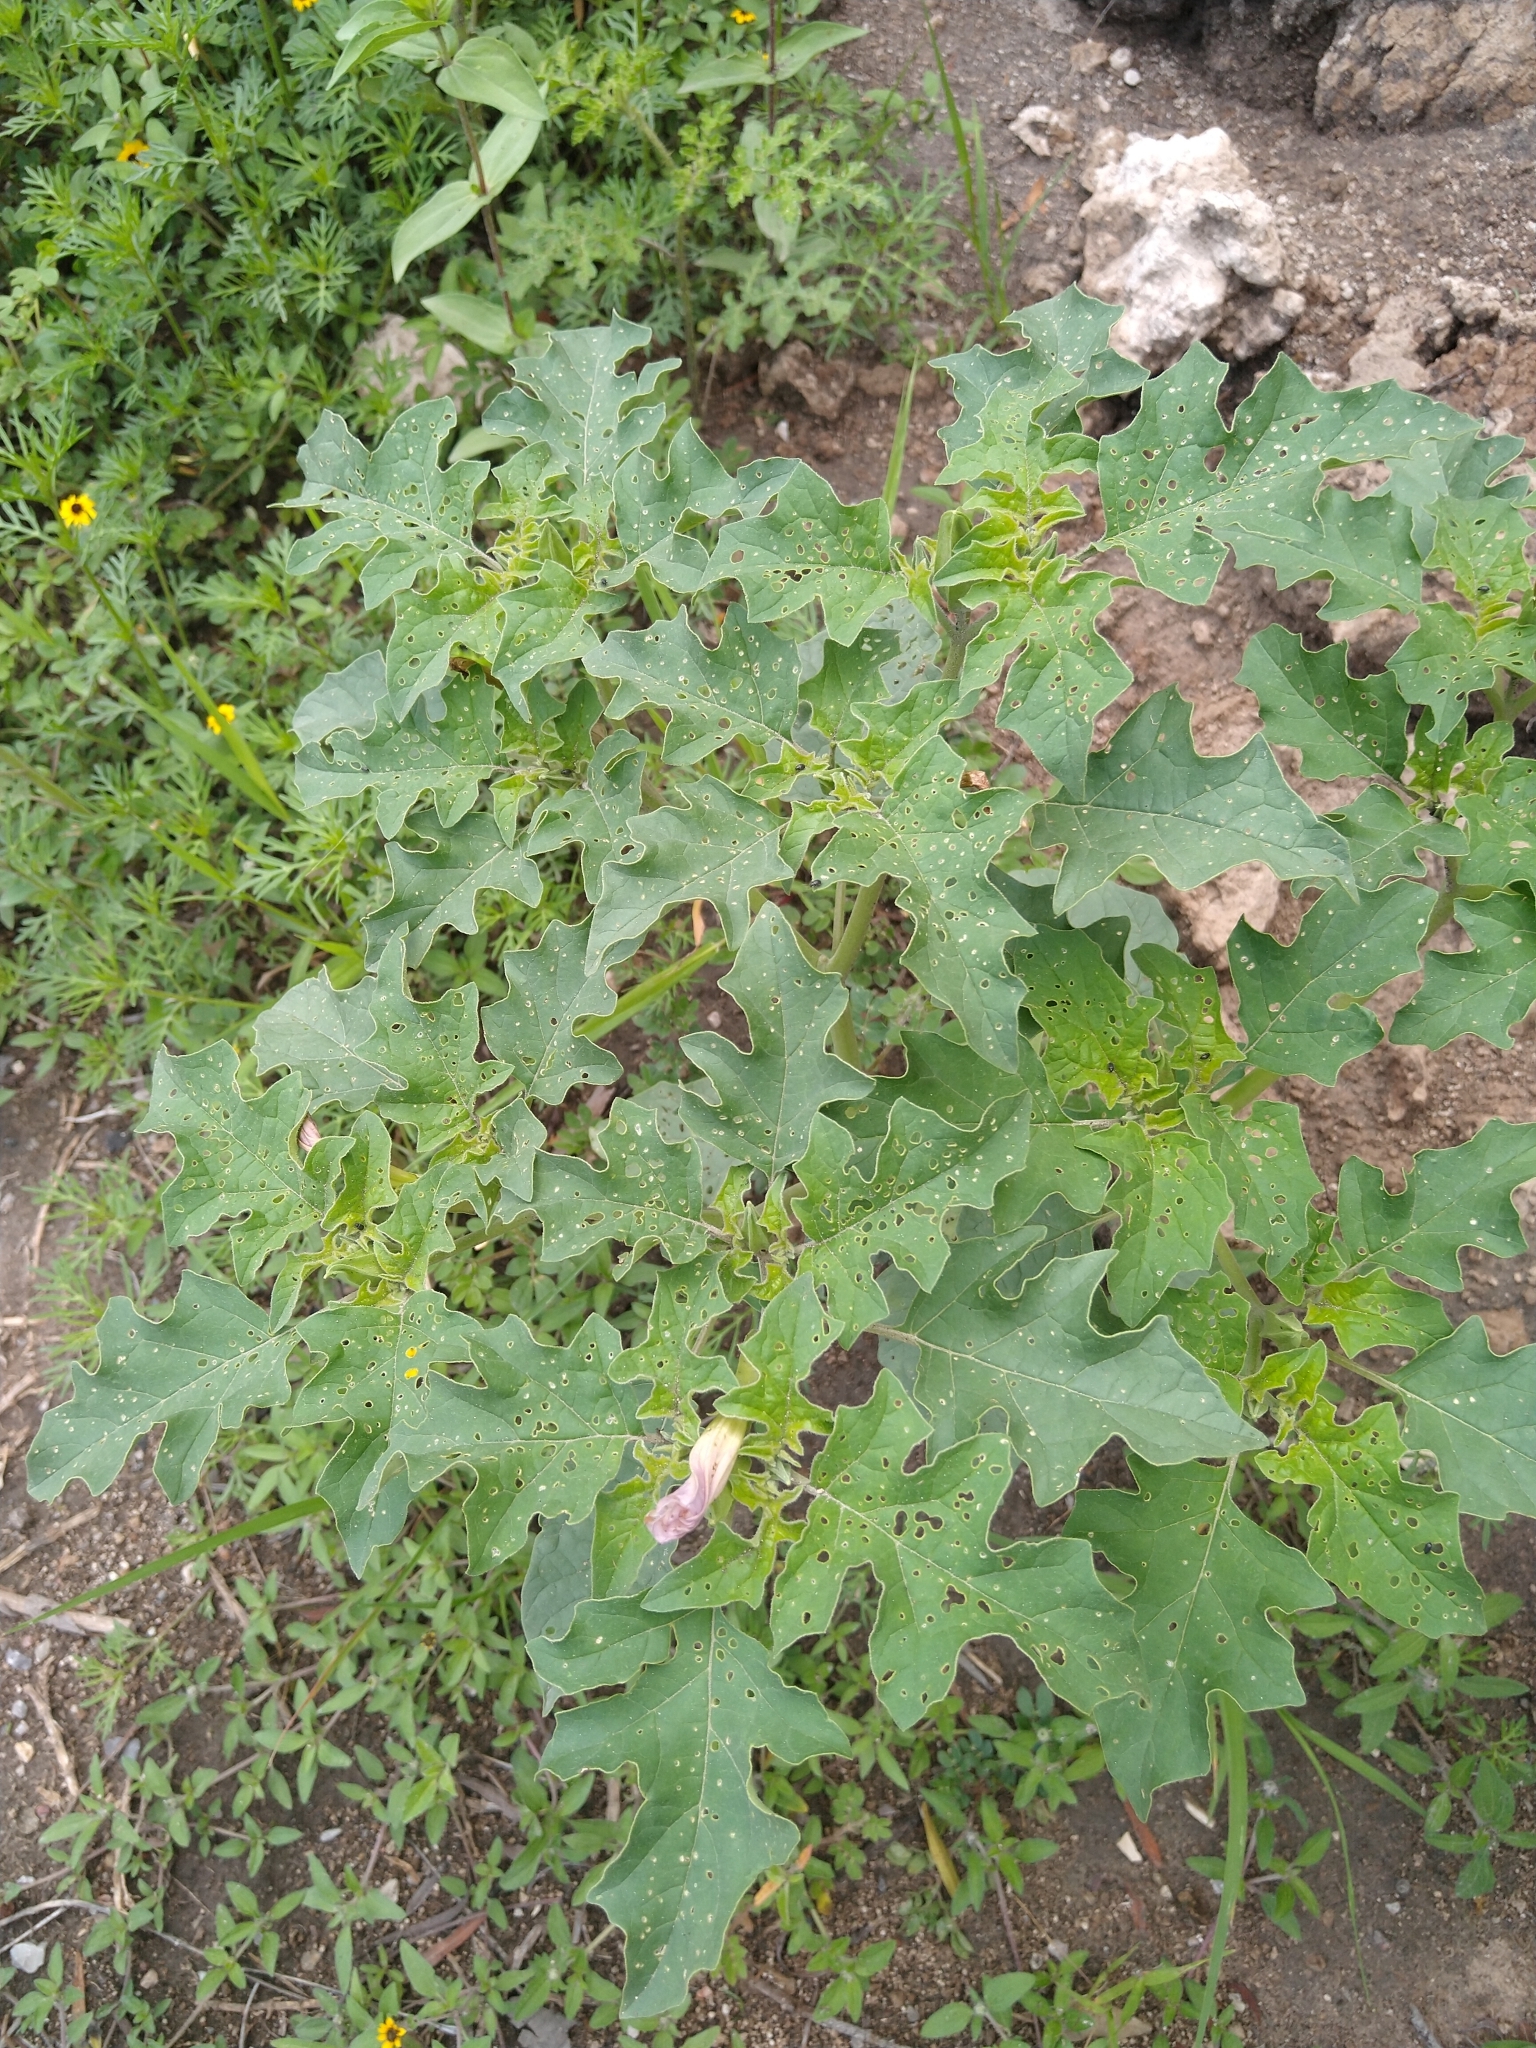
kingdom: Plantae
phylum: Tracheophyta
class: Magnoliopsida
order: Solanales
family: Solanaceae
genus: Datura
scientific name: Datura quercifolia
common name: Oak-leaf datura
